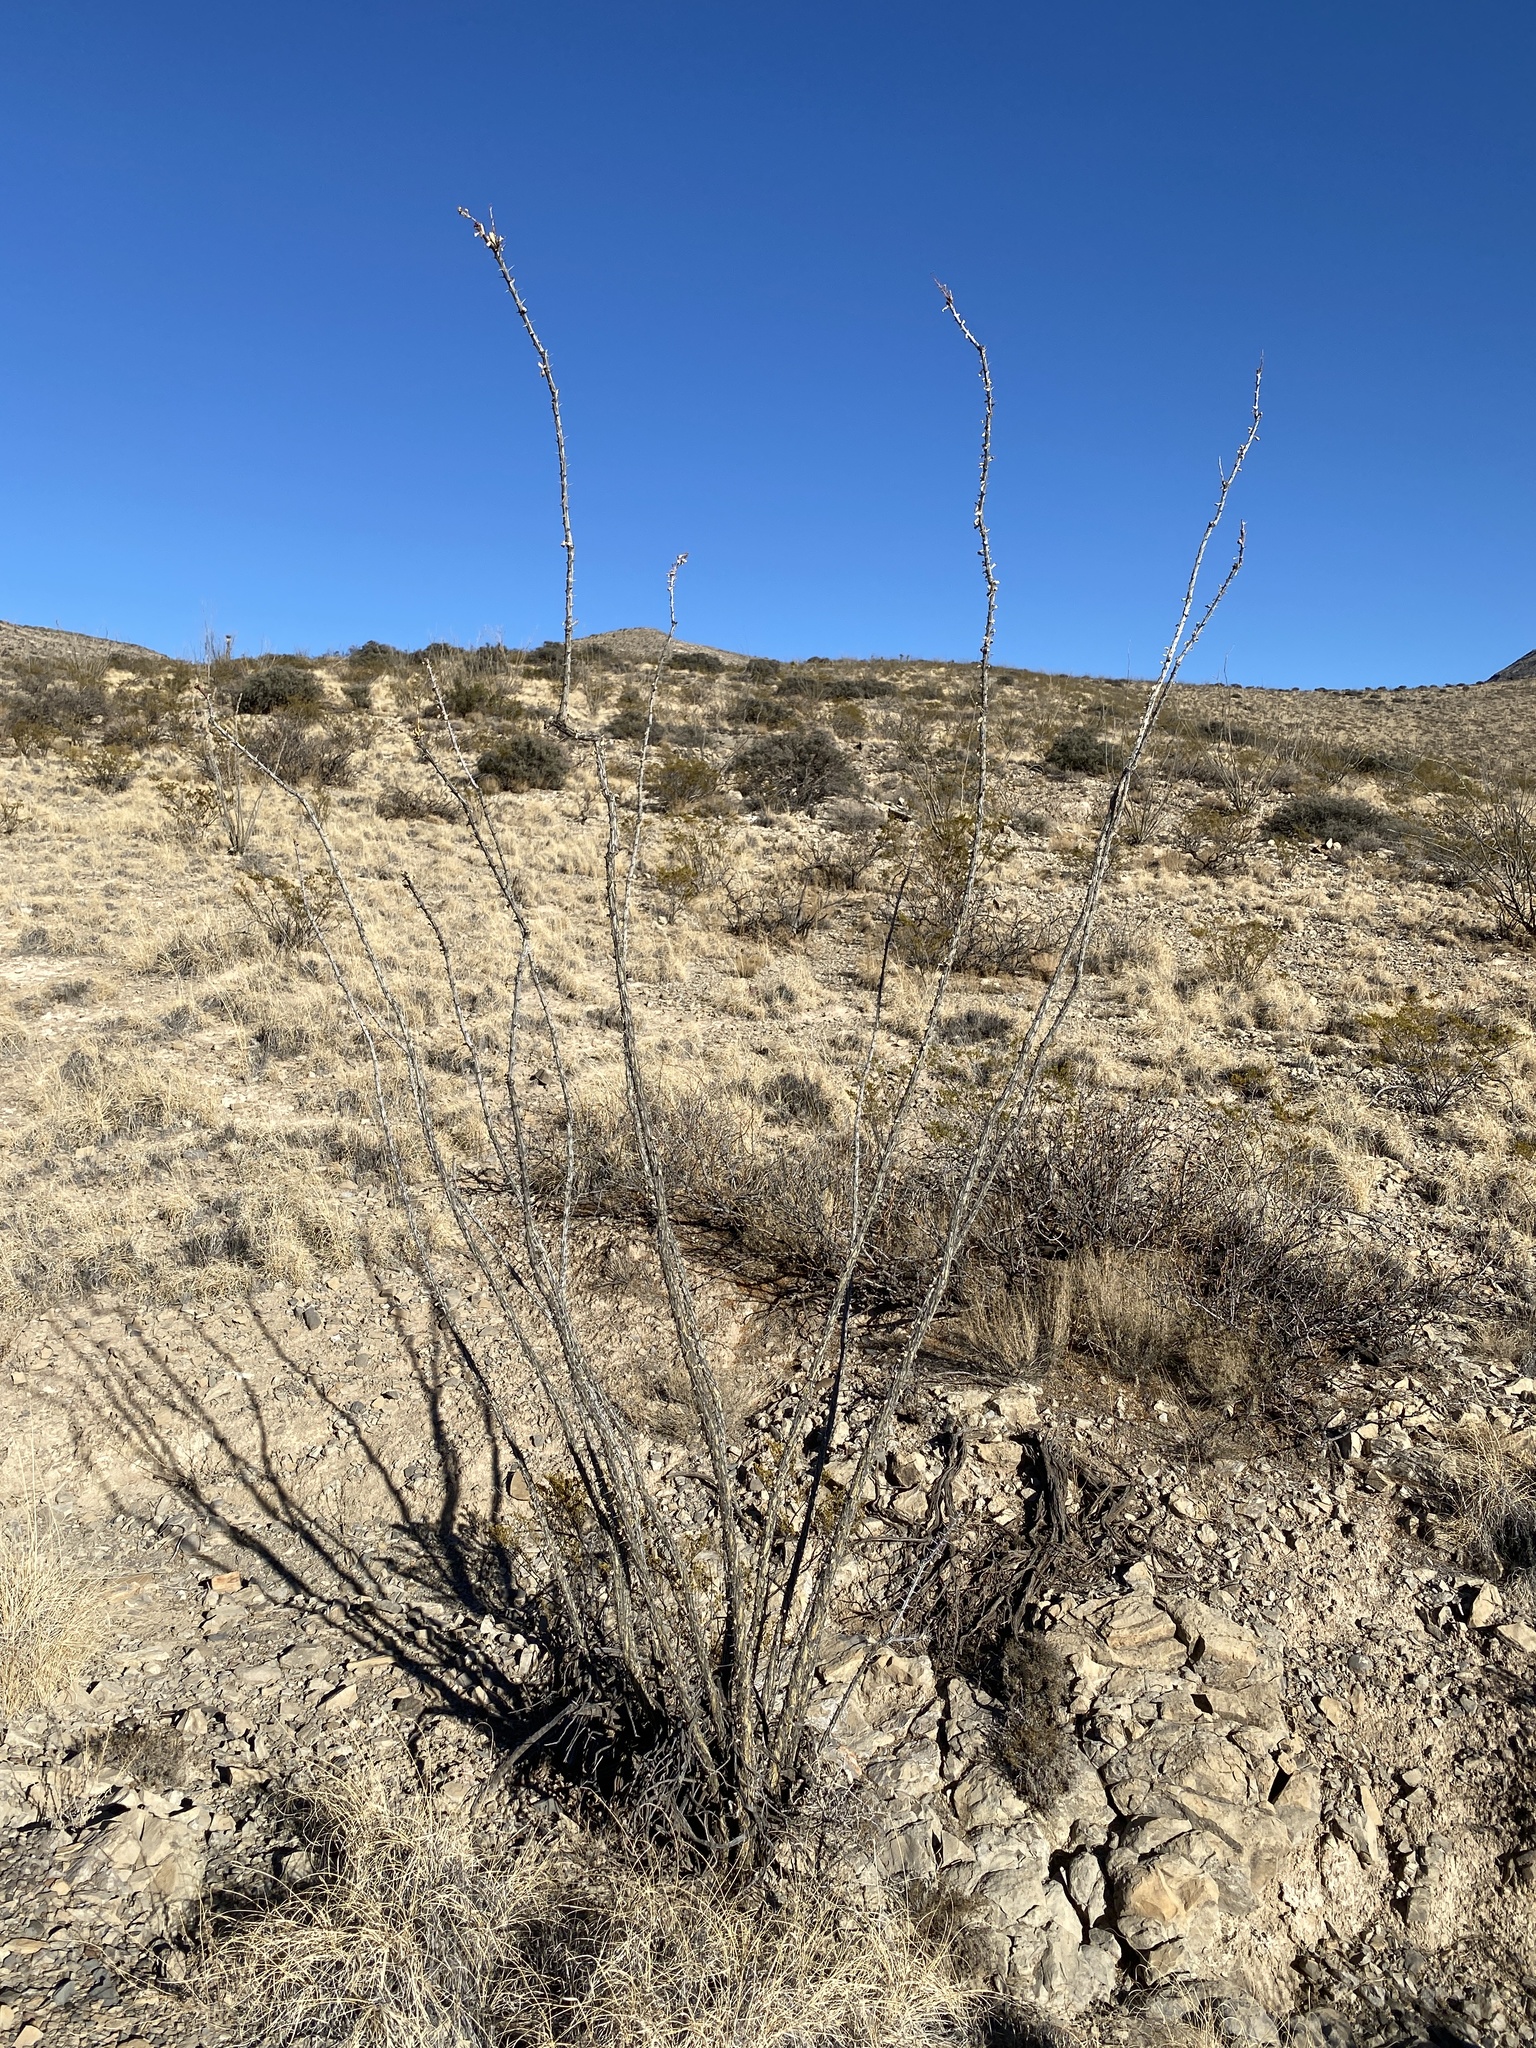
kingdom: Plantae
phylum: Tracheophyta
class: Magnoliopsida
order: Ericales
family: Fouquieriaceae
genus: Fouquieria
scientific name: Fouquieria splendens
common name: Vine-cactus
